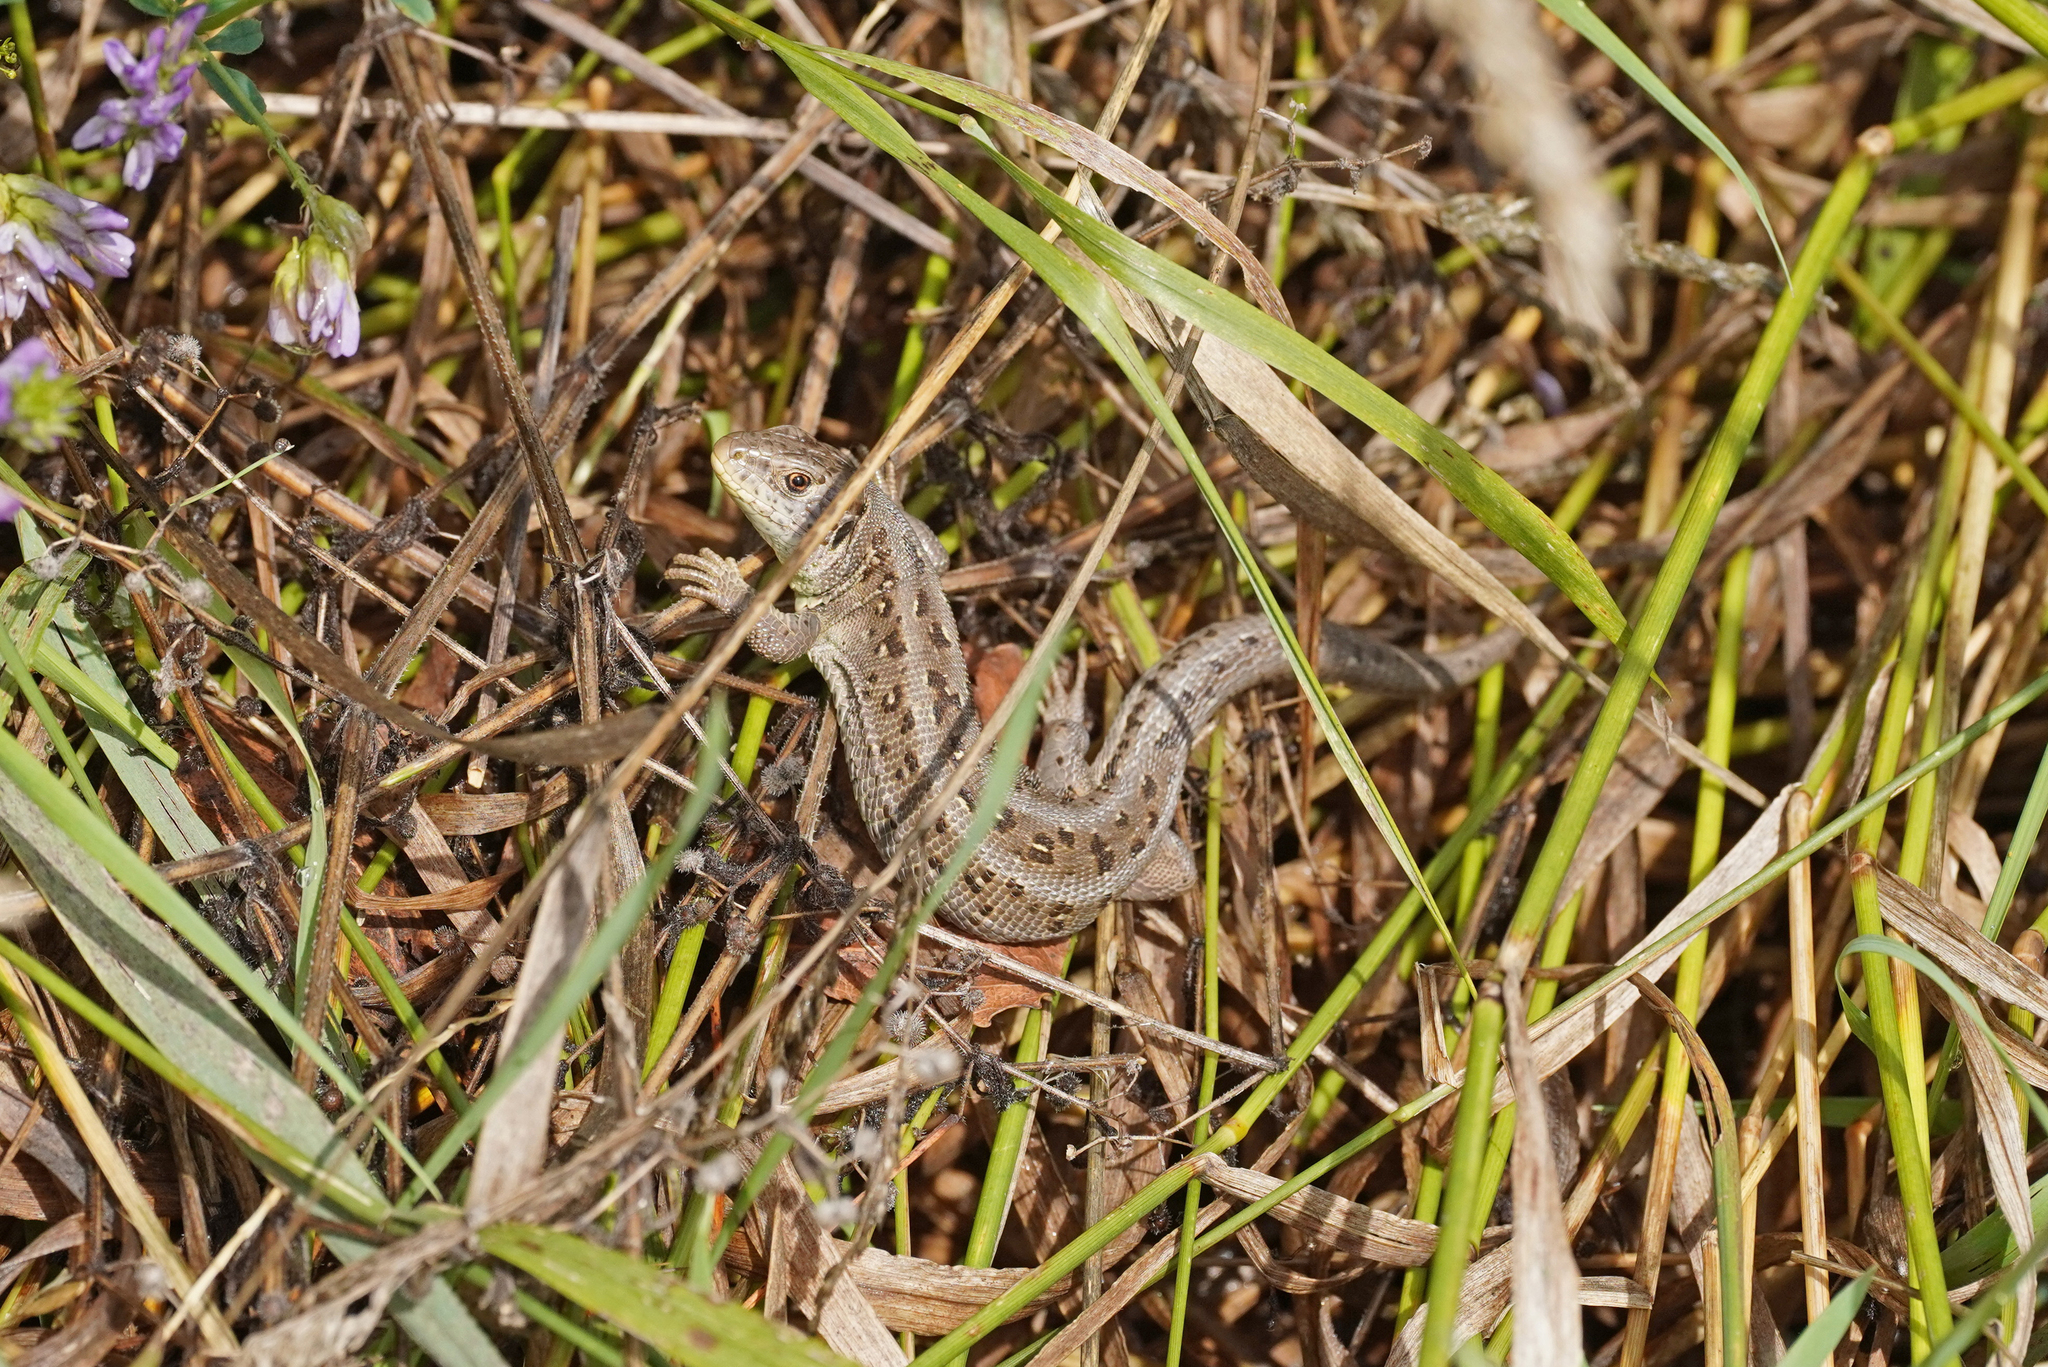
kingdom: Animalia
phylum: Chordata
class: Squamata
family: Lacertidae
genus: Lacerta
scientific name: Lacerta agilis
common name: Sand lizard
